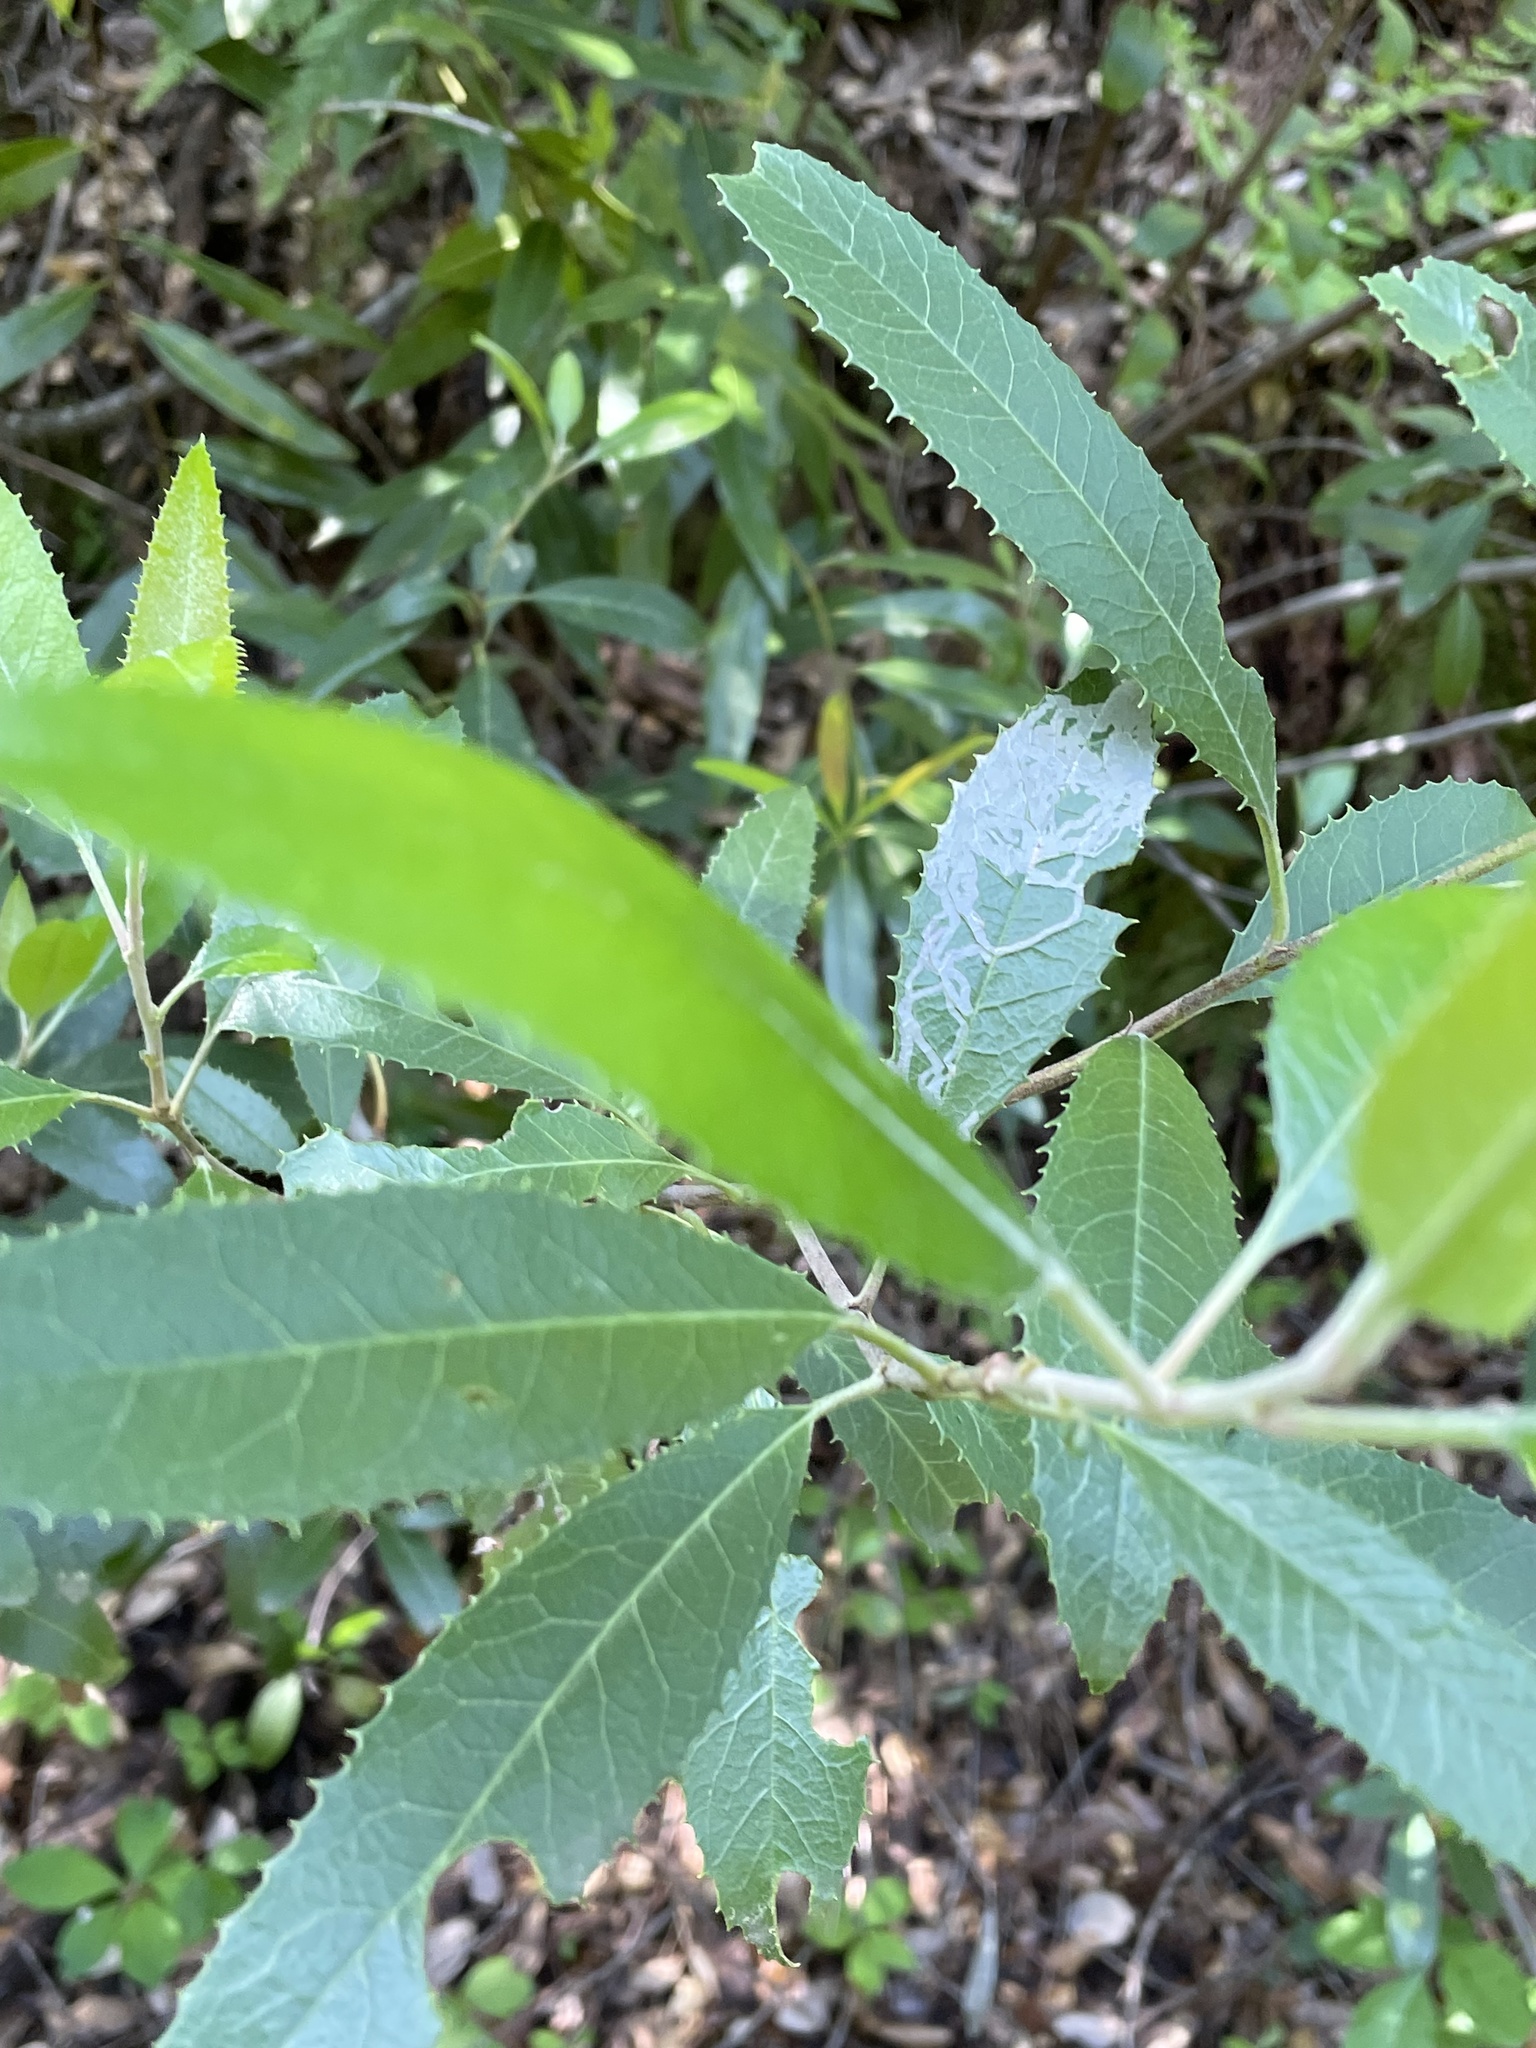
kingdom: Plantae
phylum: Tracheophyta
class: Magnoliopsida
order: Rosales
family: Rosaceae
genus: Heteromeles
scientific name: Heteromeles arbutifolia
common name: California-holly
